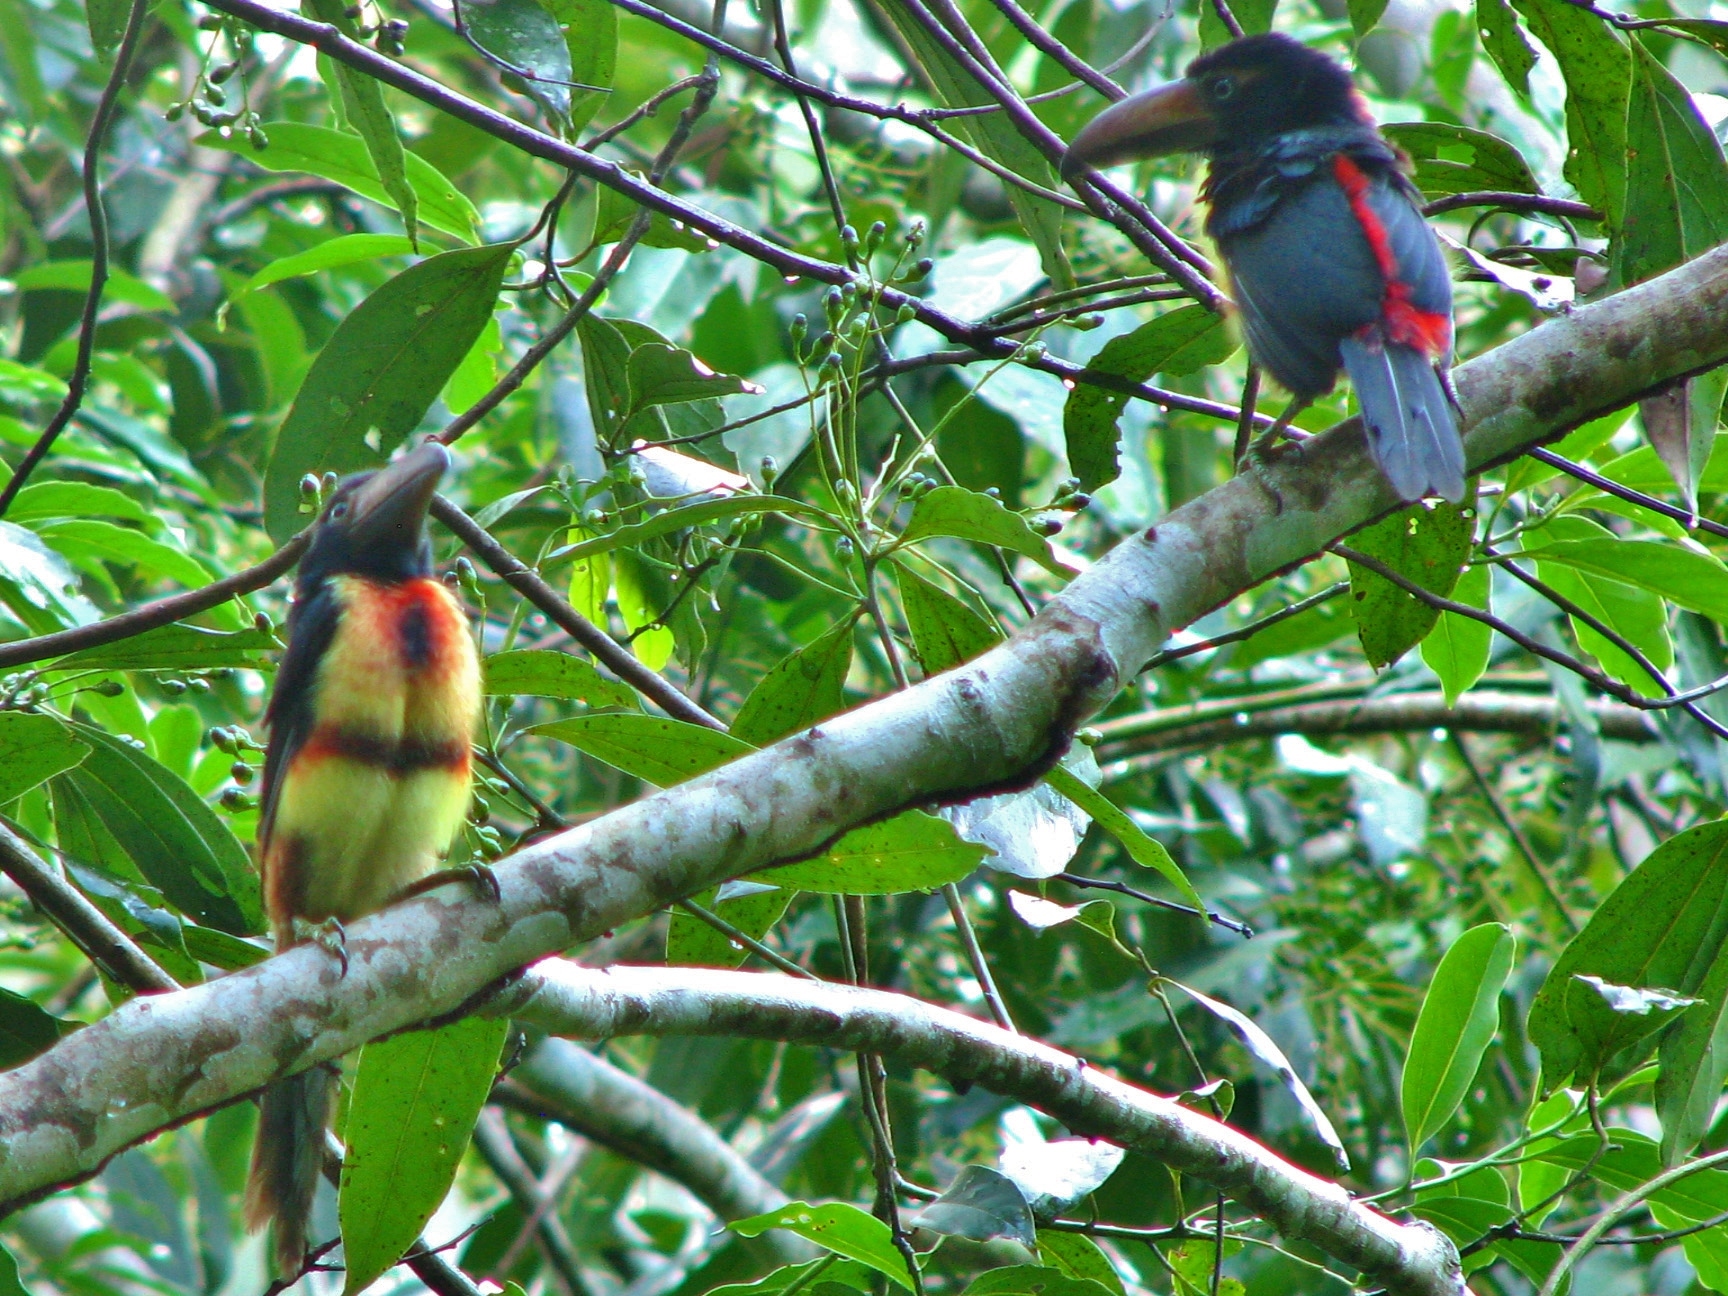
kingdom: Animalia
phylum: Chordata
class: Aves
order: Piciformes
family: Ramphastidae
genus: Pteroglossus
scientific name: Pteroglossus torquatus
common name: Collared aracari
